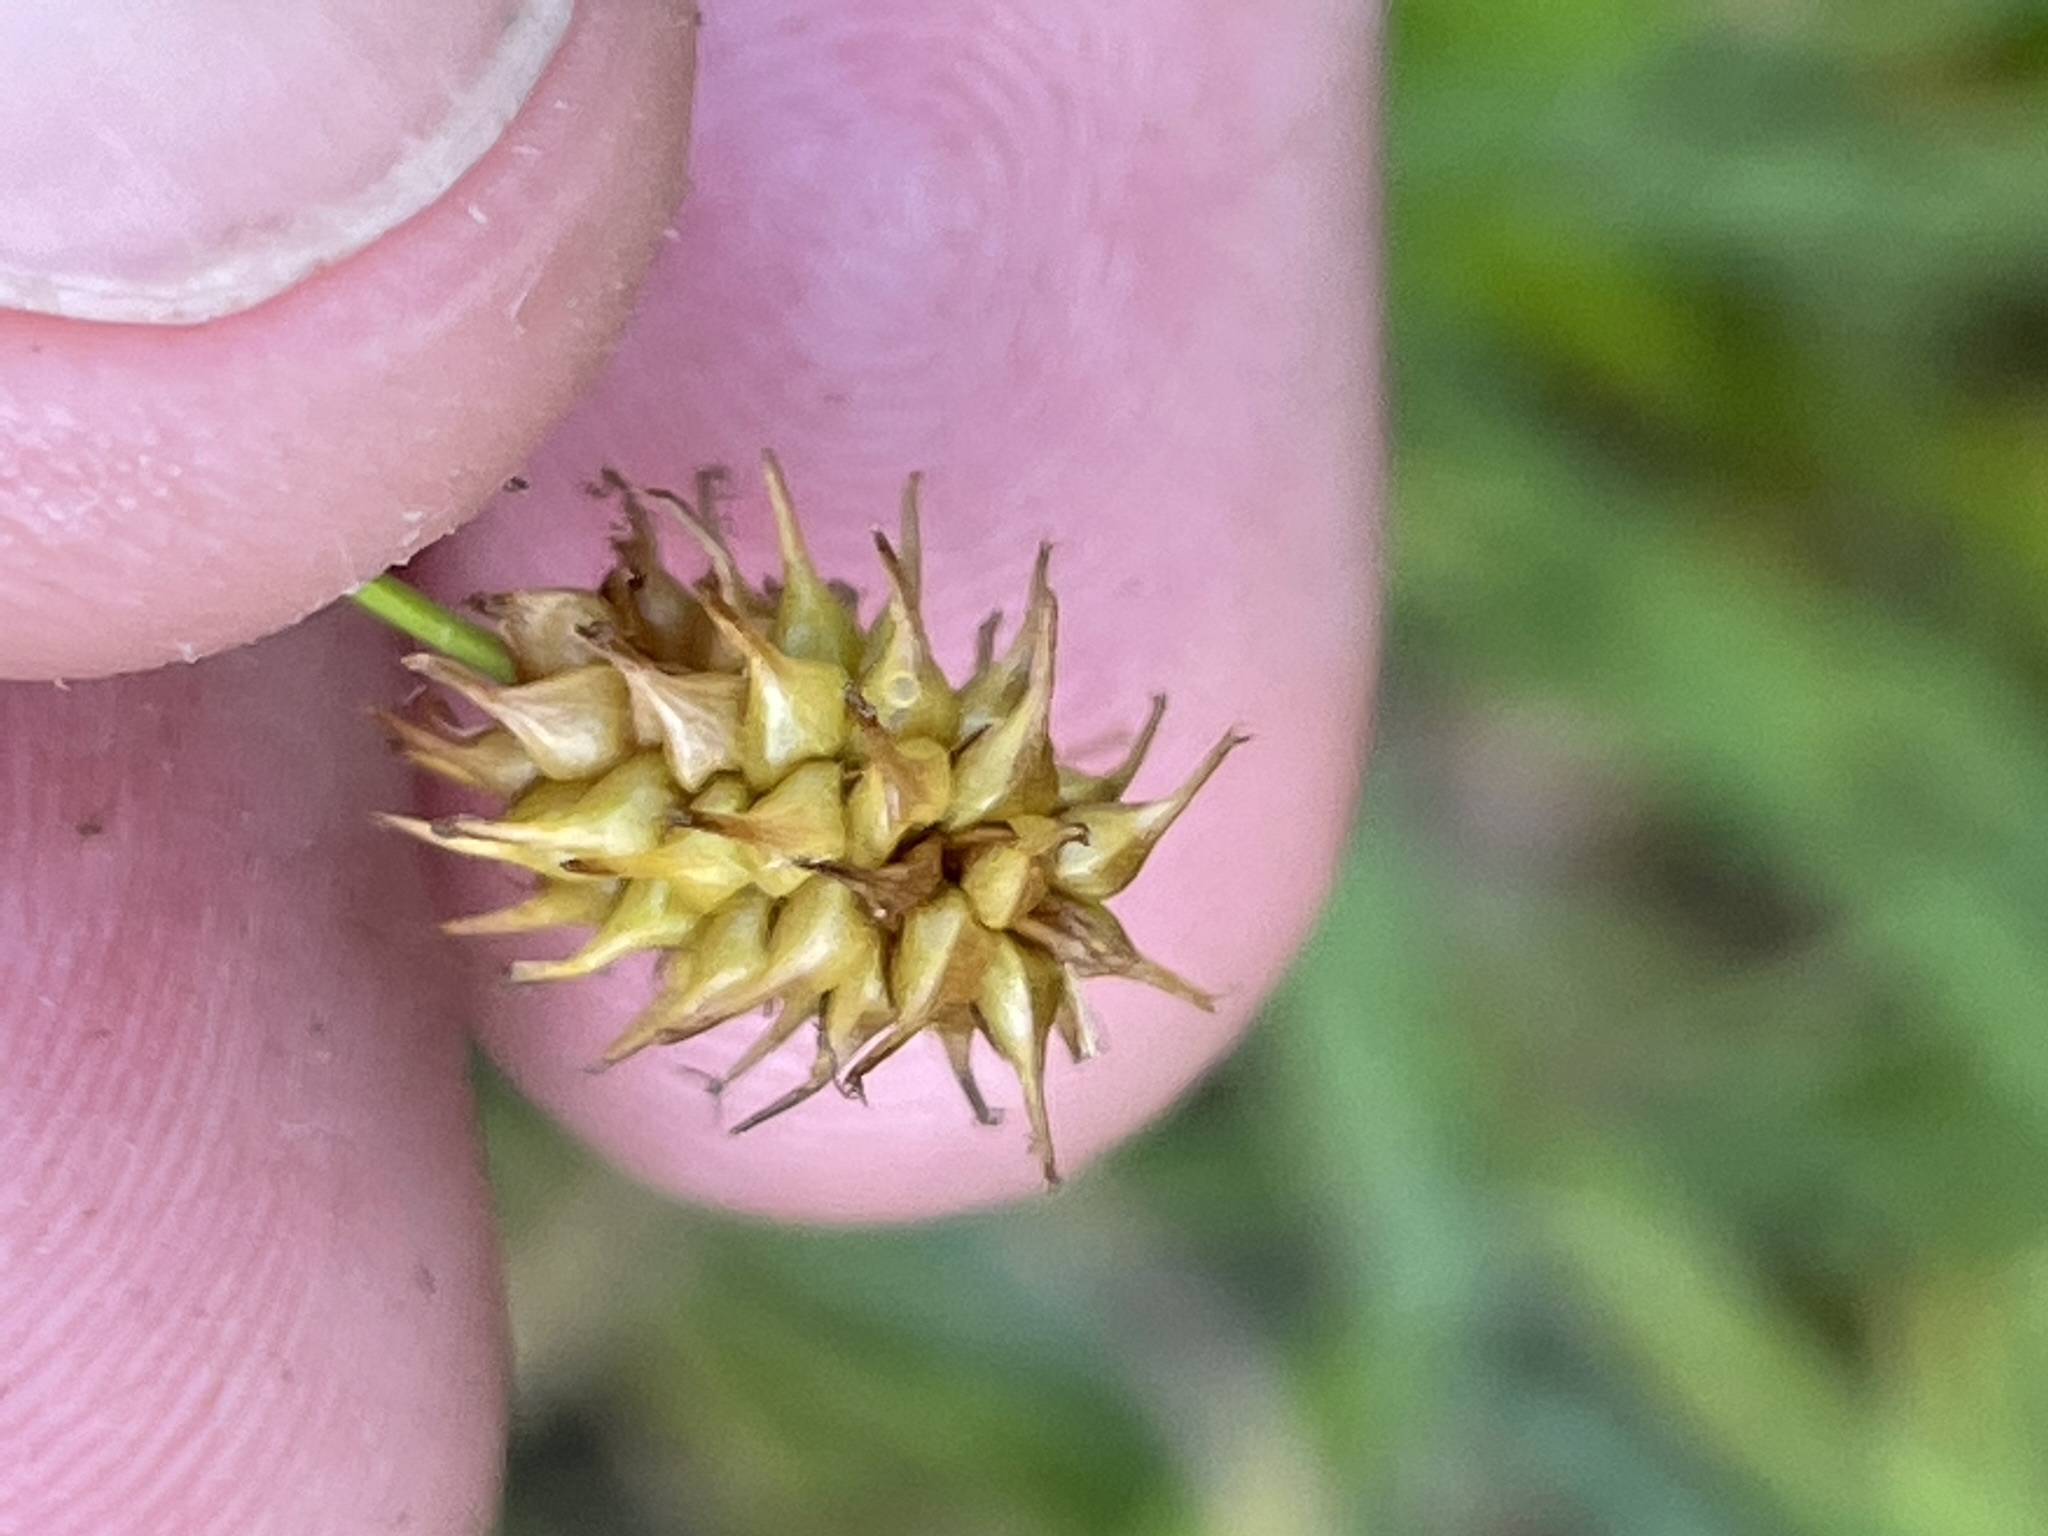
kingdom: Plantae
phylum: Tracheophyta
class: Liliopsida
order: Poales
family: Cyperaceae
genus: Carex
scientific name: Carex flava
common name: Large yellow-sedge
